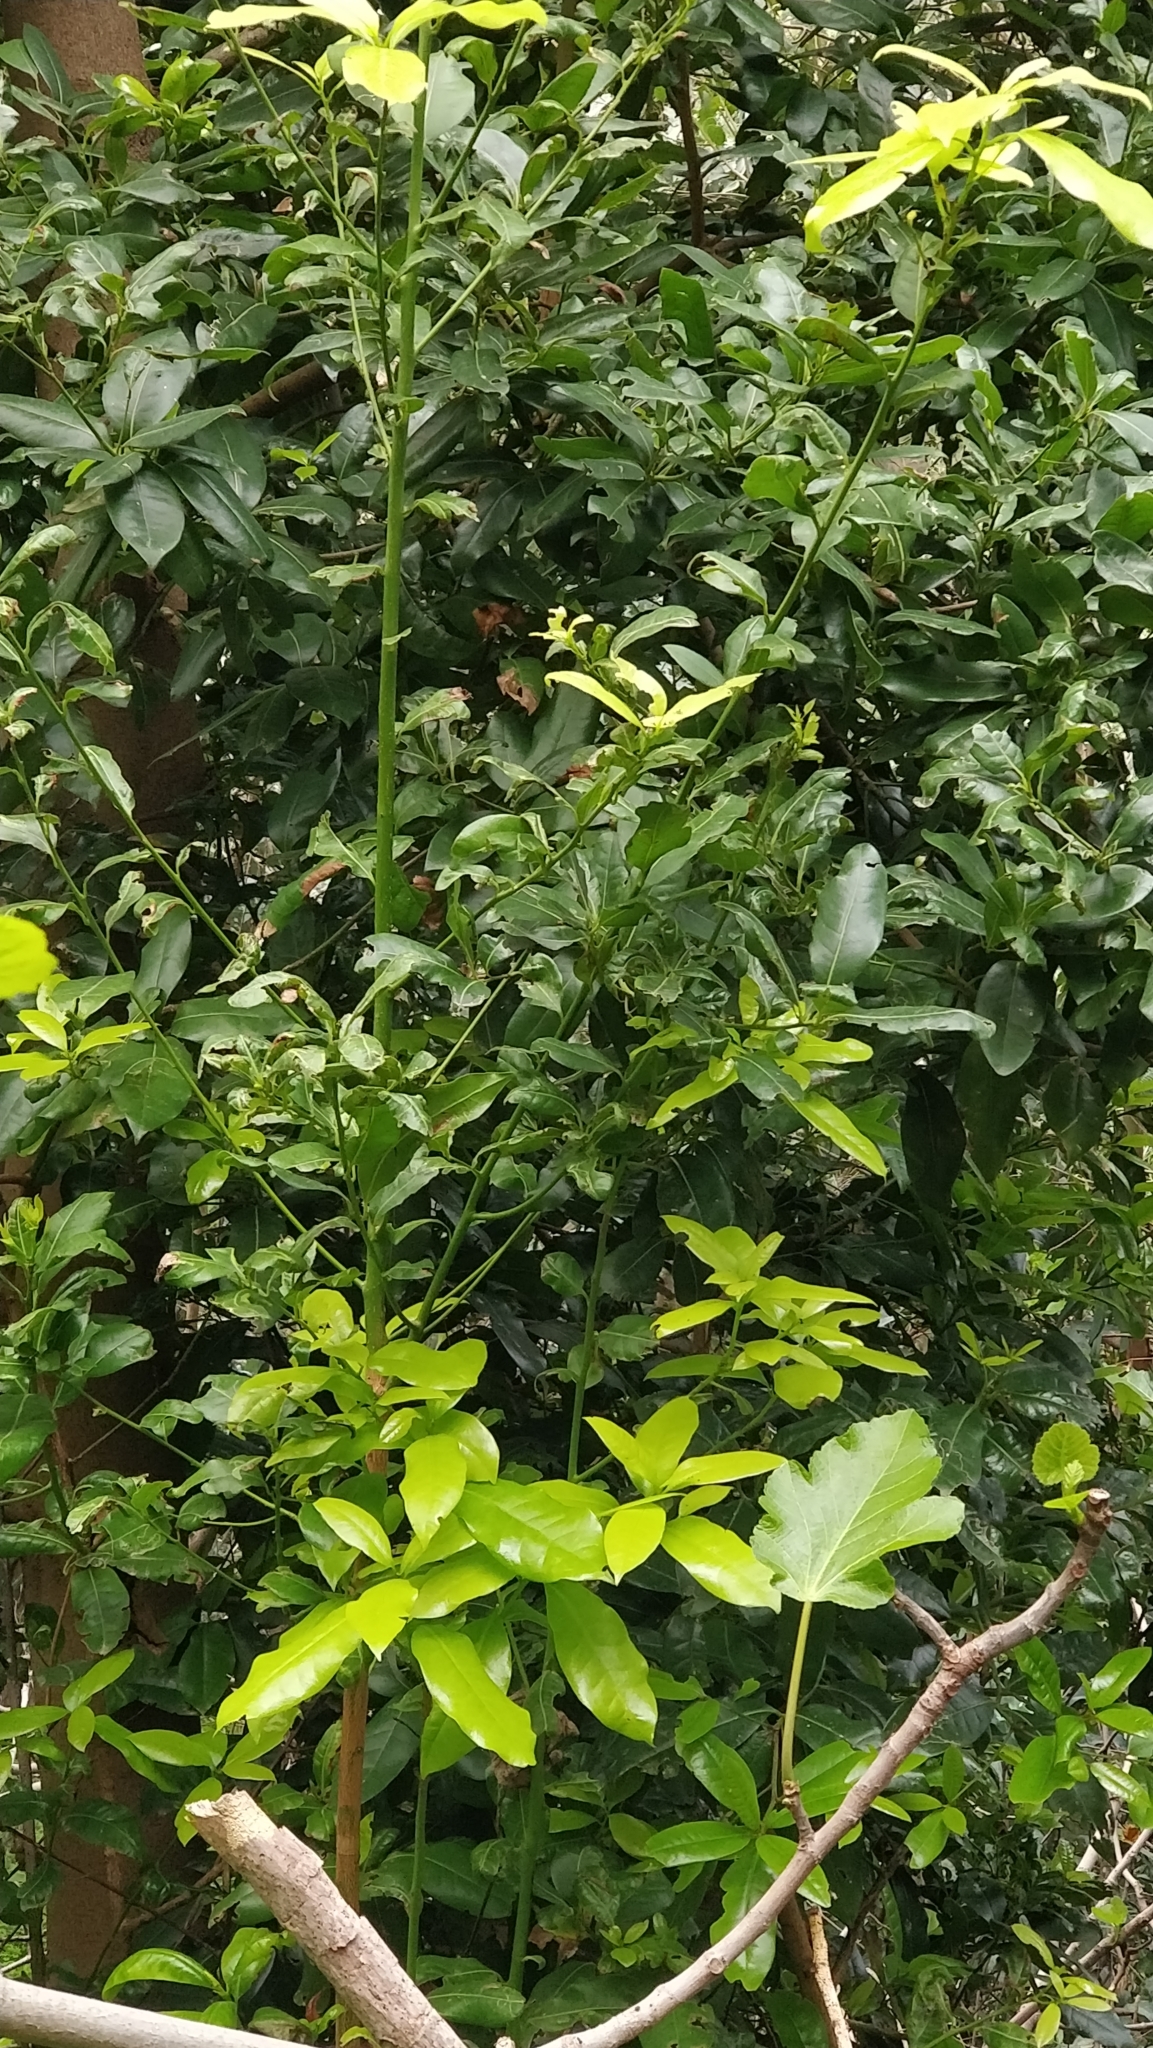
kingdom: Plantae
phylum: Tracheophyta
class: Magnoliopsida
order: Laurales
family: Lauraceae
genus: Apollonias
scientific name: Apollonias barbujana
